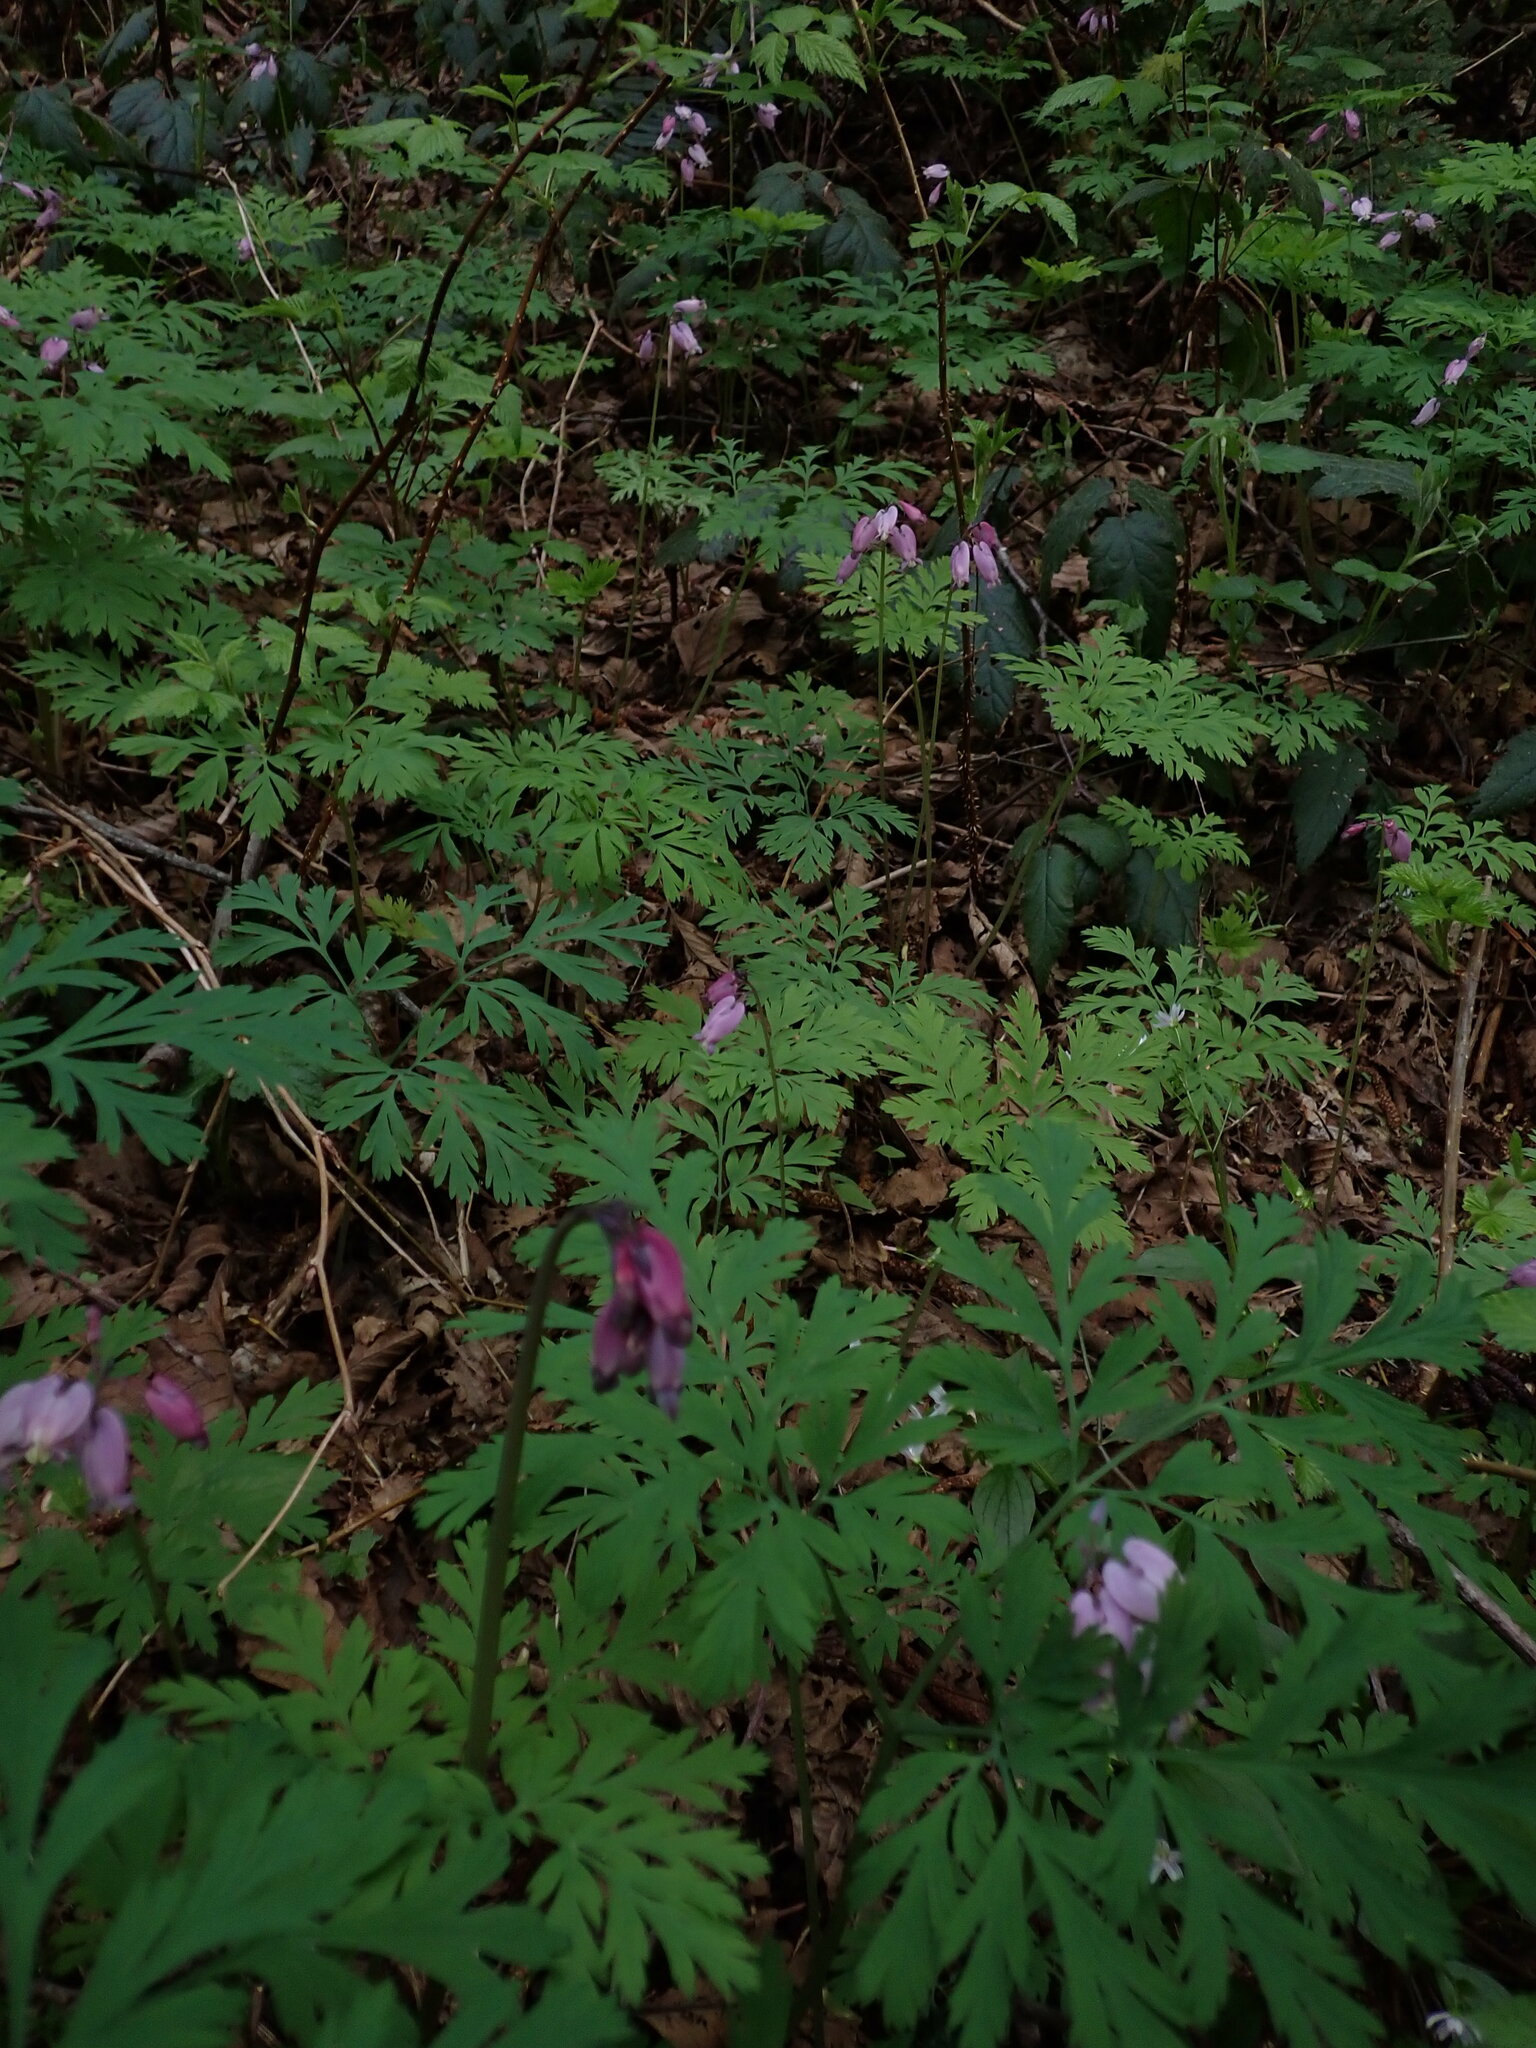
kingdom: Plantae
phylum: Tracheophyta
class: Magnoliopsida
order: Ranunculales
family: Papaveraceae
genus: Dicentra
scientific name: Dicentra formosa
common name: Bleeding-heart
